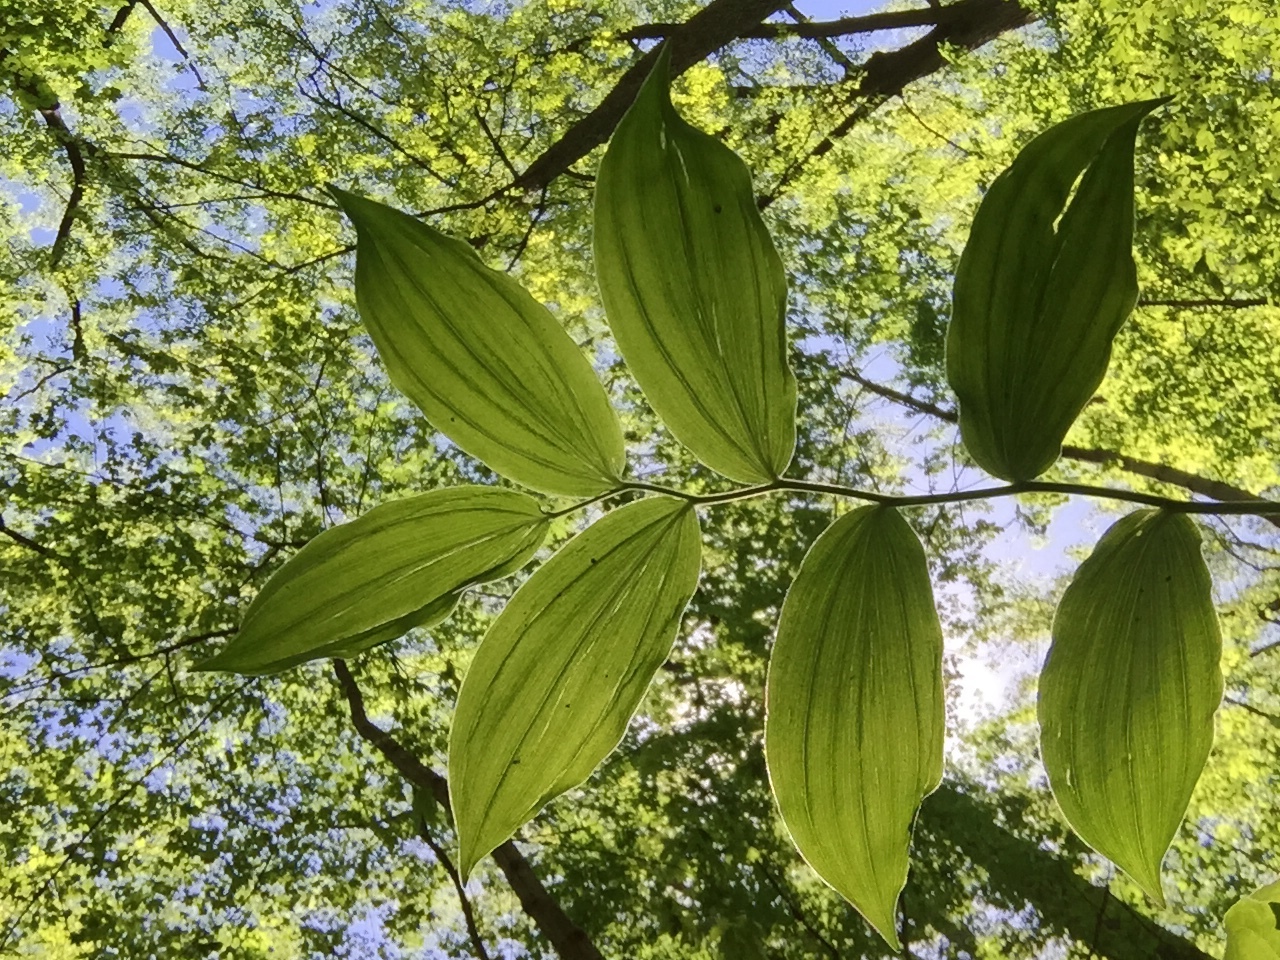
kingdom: Plantae
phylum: Tracheophyta
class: Liliopsida
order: Asparagales
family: Asparagaceae
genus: Maianthemum
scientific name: Maianthemum racemosum
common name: False spikenard
